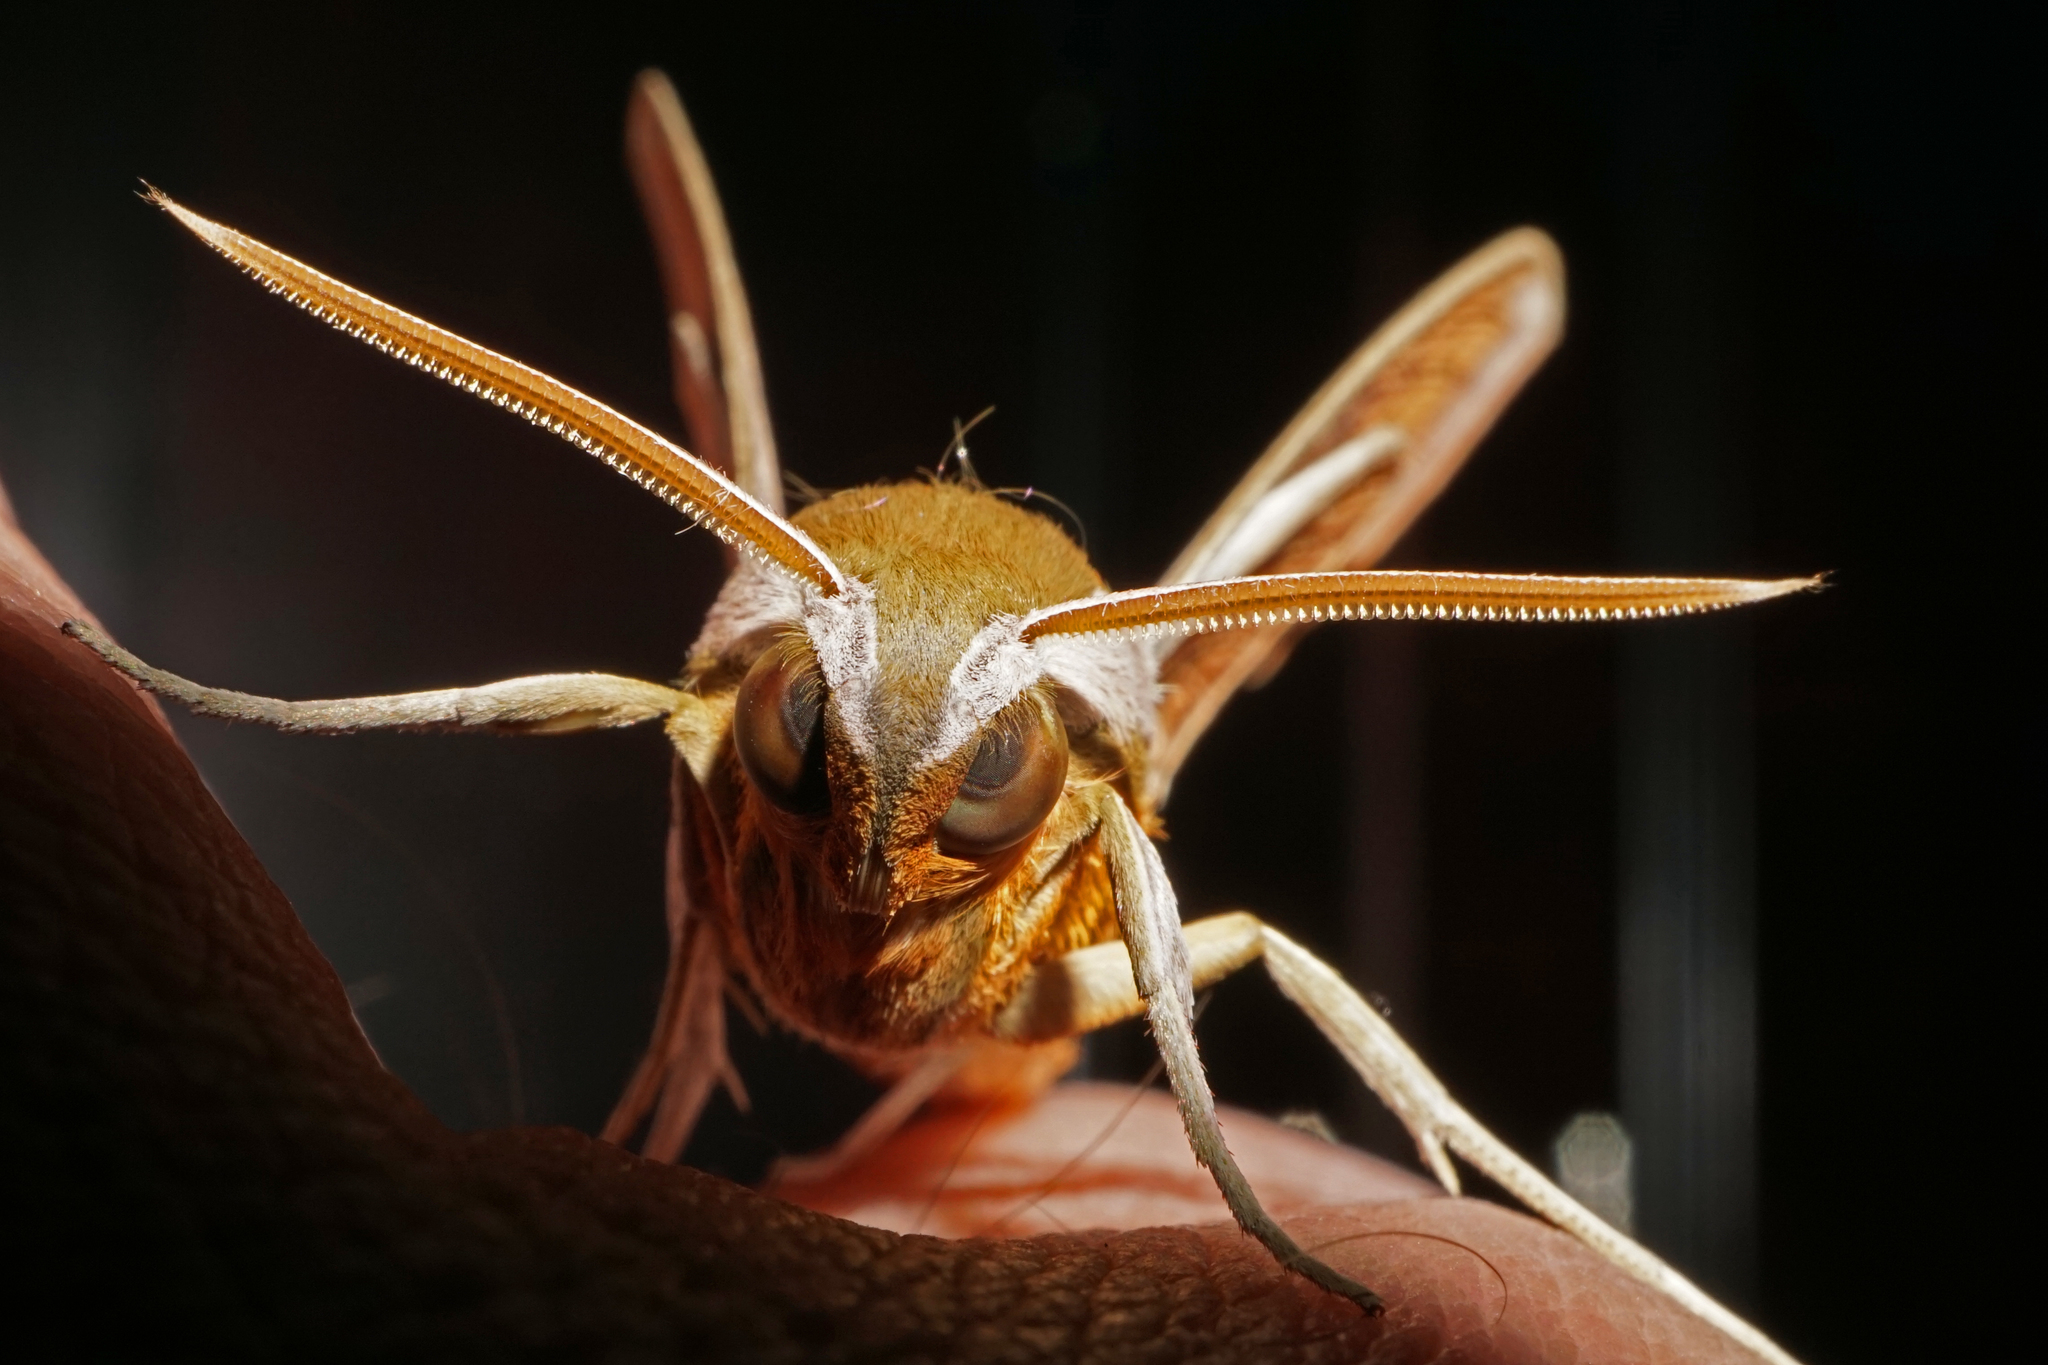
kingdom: Animalia
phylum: Arthropoda
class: Insecta
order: Lepidoptera
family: Sphingidae
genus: Xylophanes
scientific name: Xylophanes tersa
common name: Tersa sphinx
